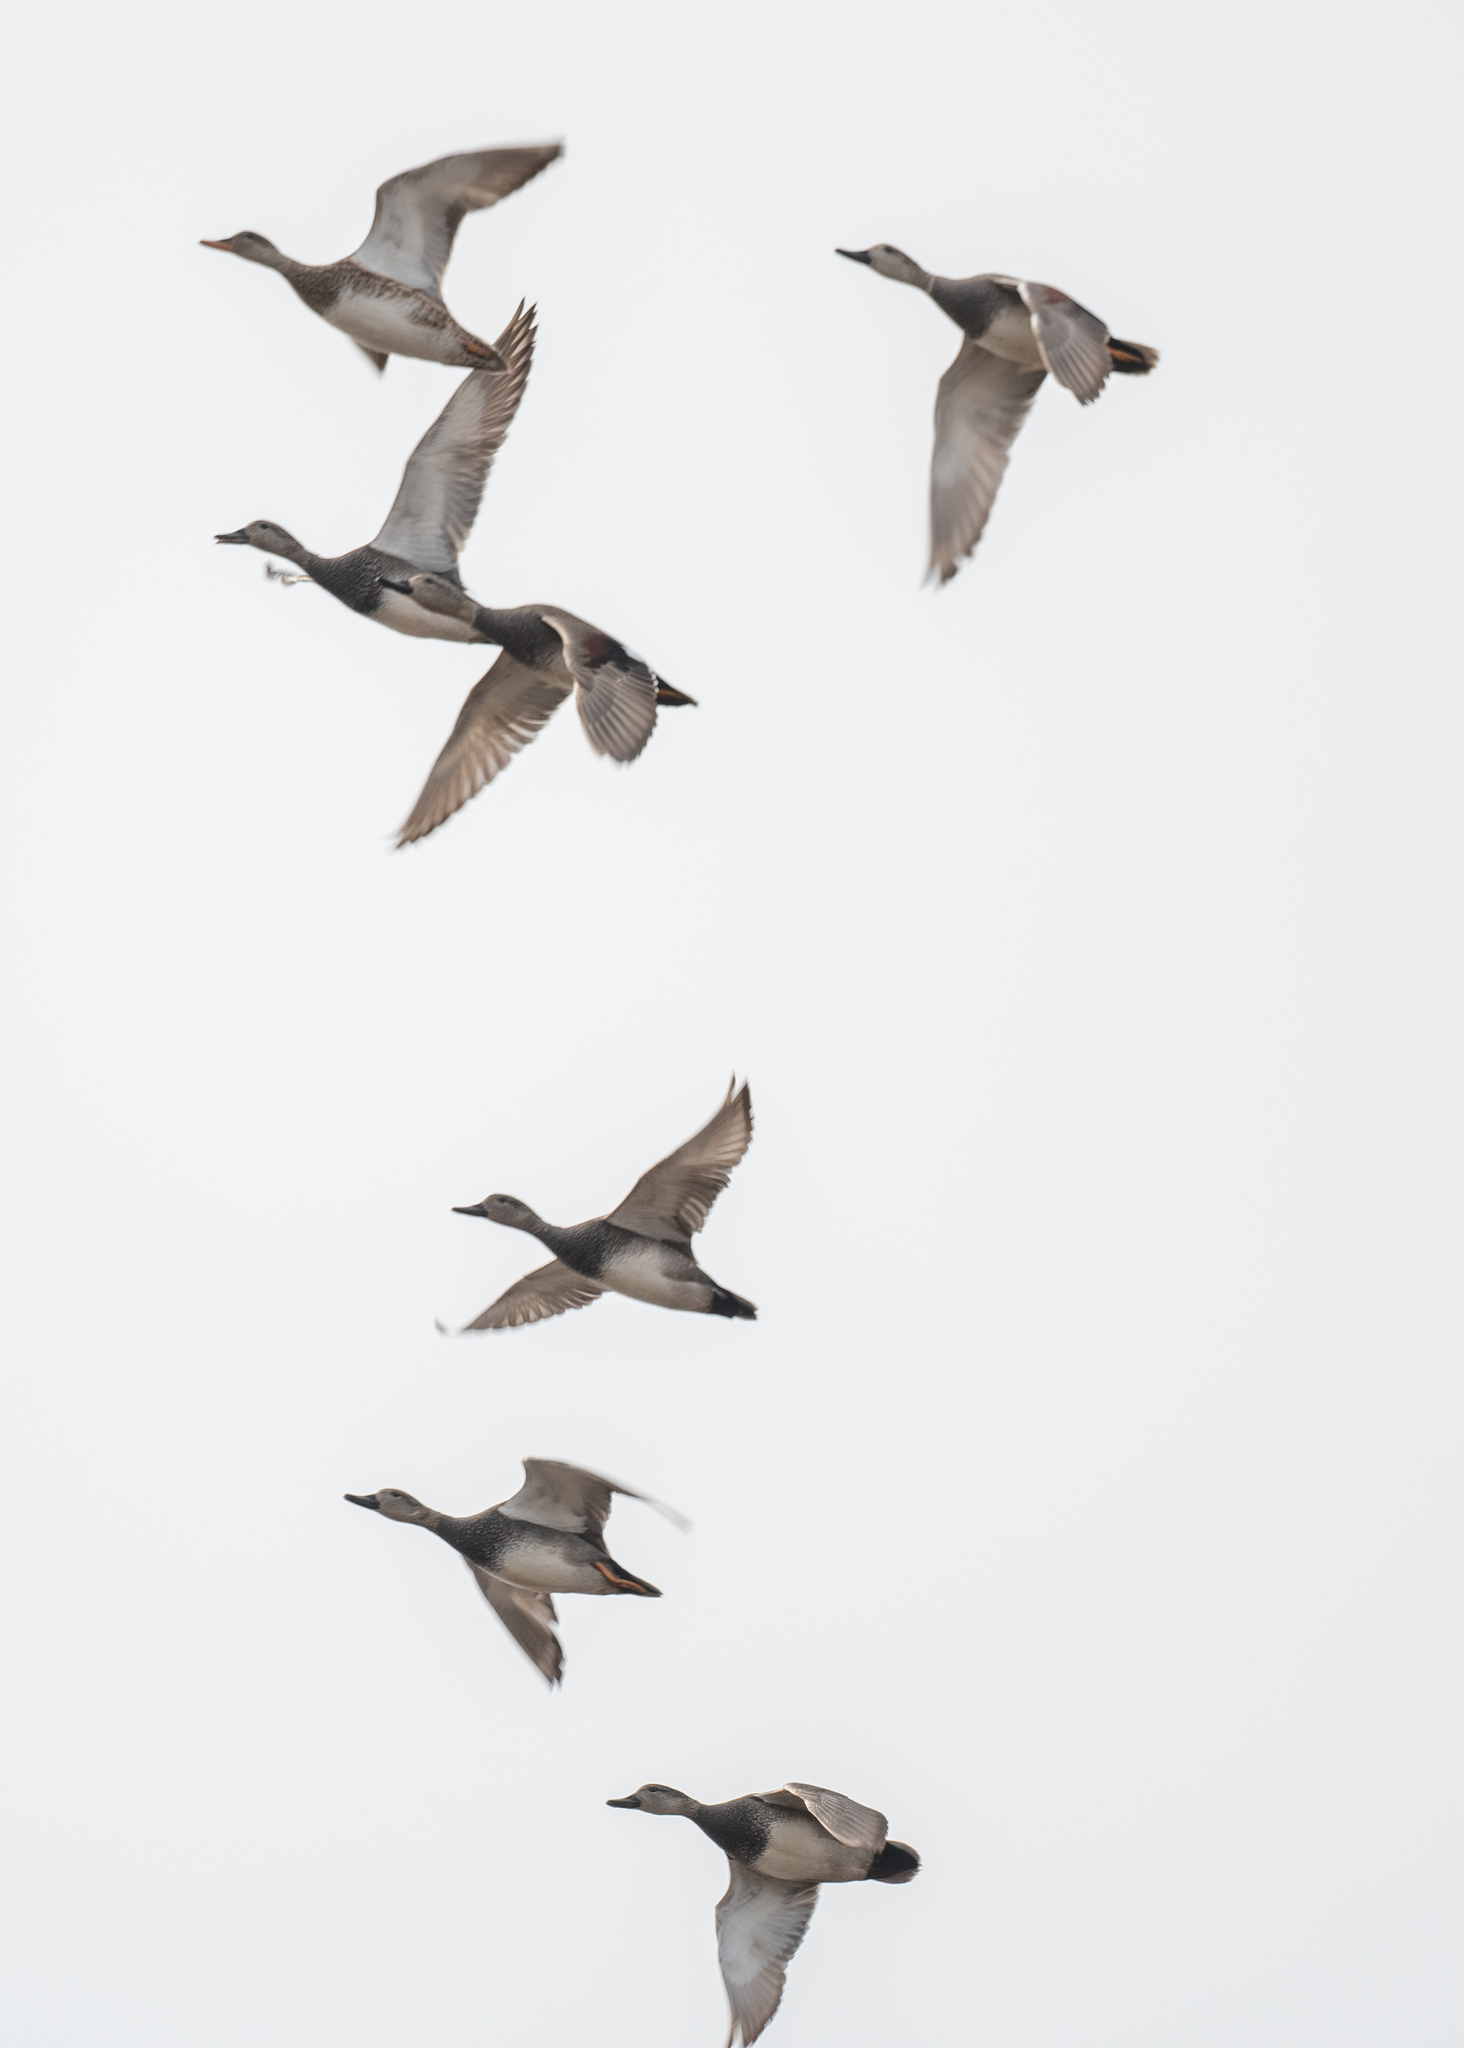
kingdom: Animalia
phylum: Chordata
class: Aves
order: Anseriformes
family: Anatidae
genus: Mareca
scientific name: Mareca strepera
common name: Gadwall
